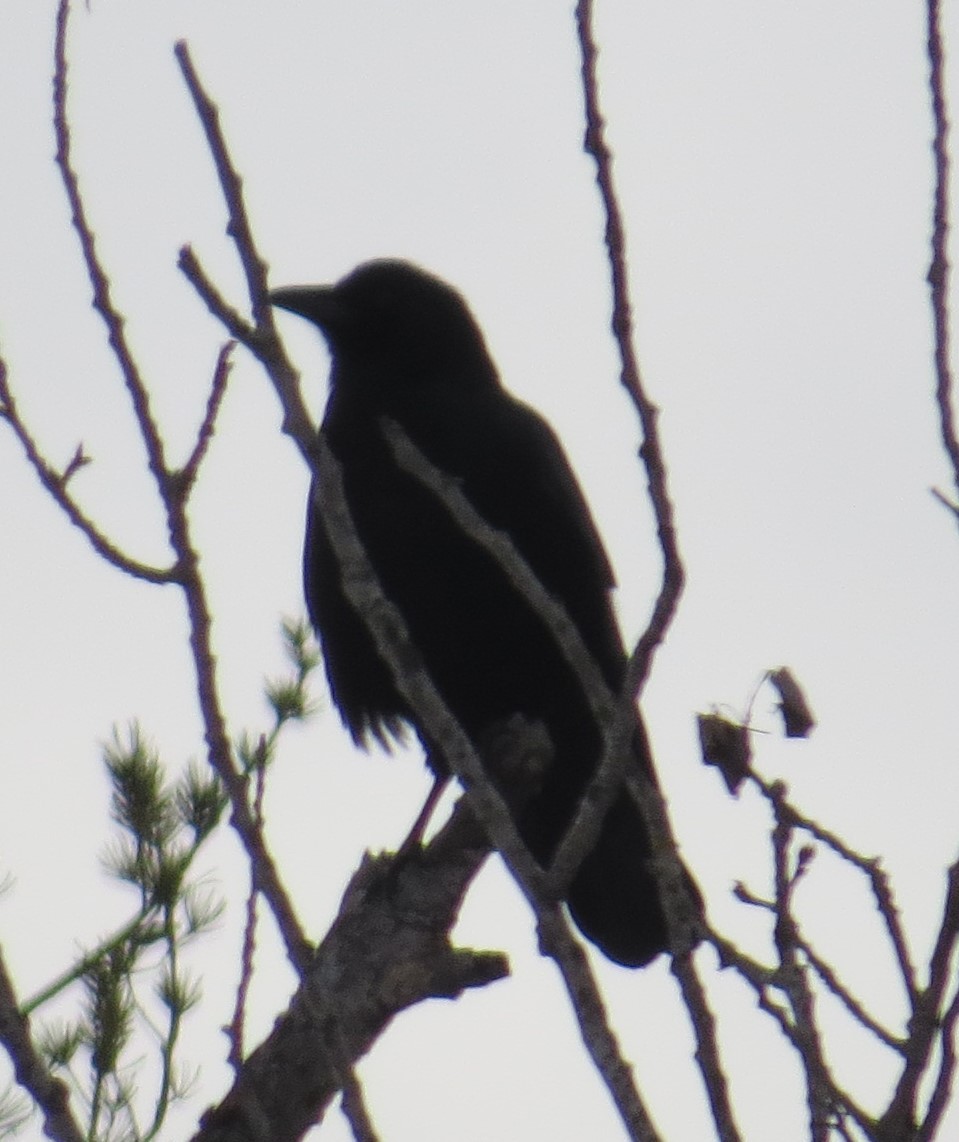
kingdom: Animalia
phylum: Chordata
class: Aves
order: Passeriformes
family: Corvidae
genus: Corvus
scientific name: Corvus brachyrhynchos
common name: American crow
